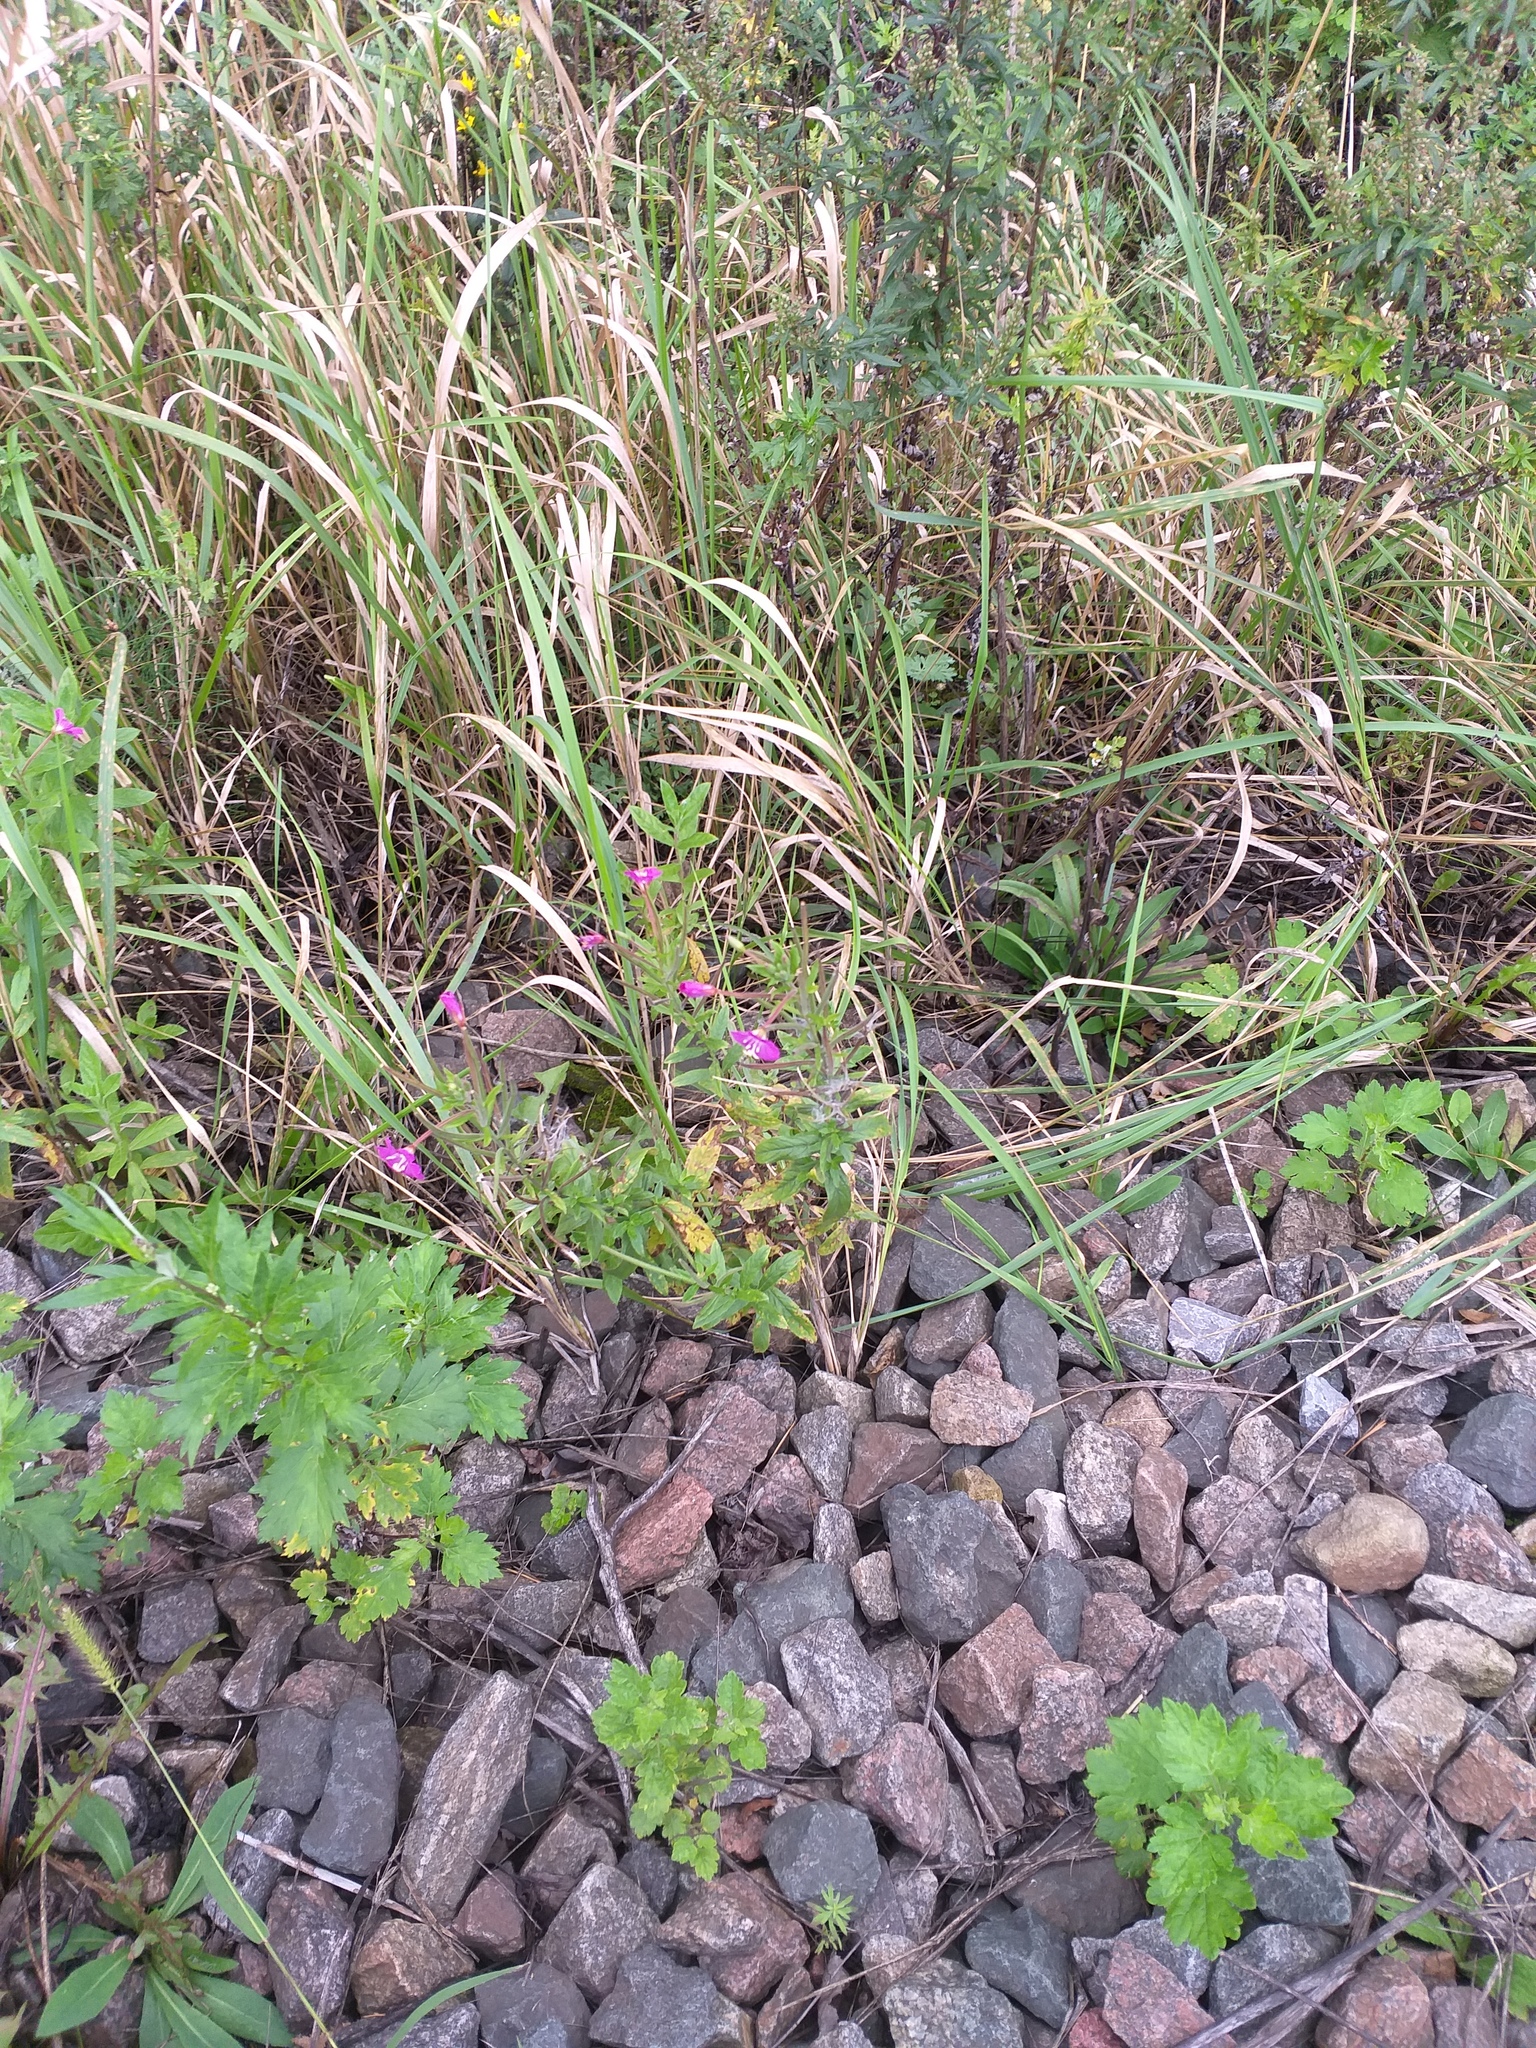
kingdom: Plantae
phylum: Tracheophyta
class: Magnoliopsida
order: Myrtales
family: Onagraceae
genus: Epilobium
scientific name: Epilobium hirsutum
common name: Great willowherb
